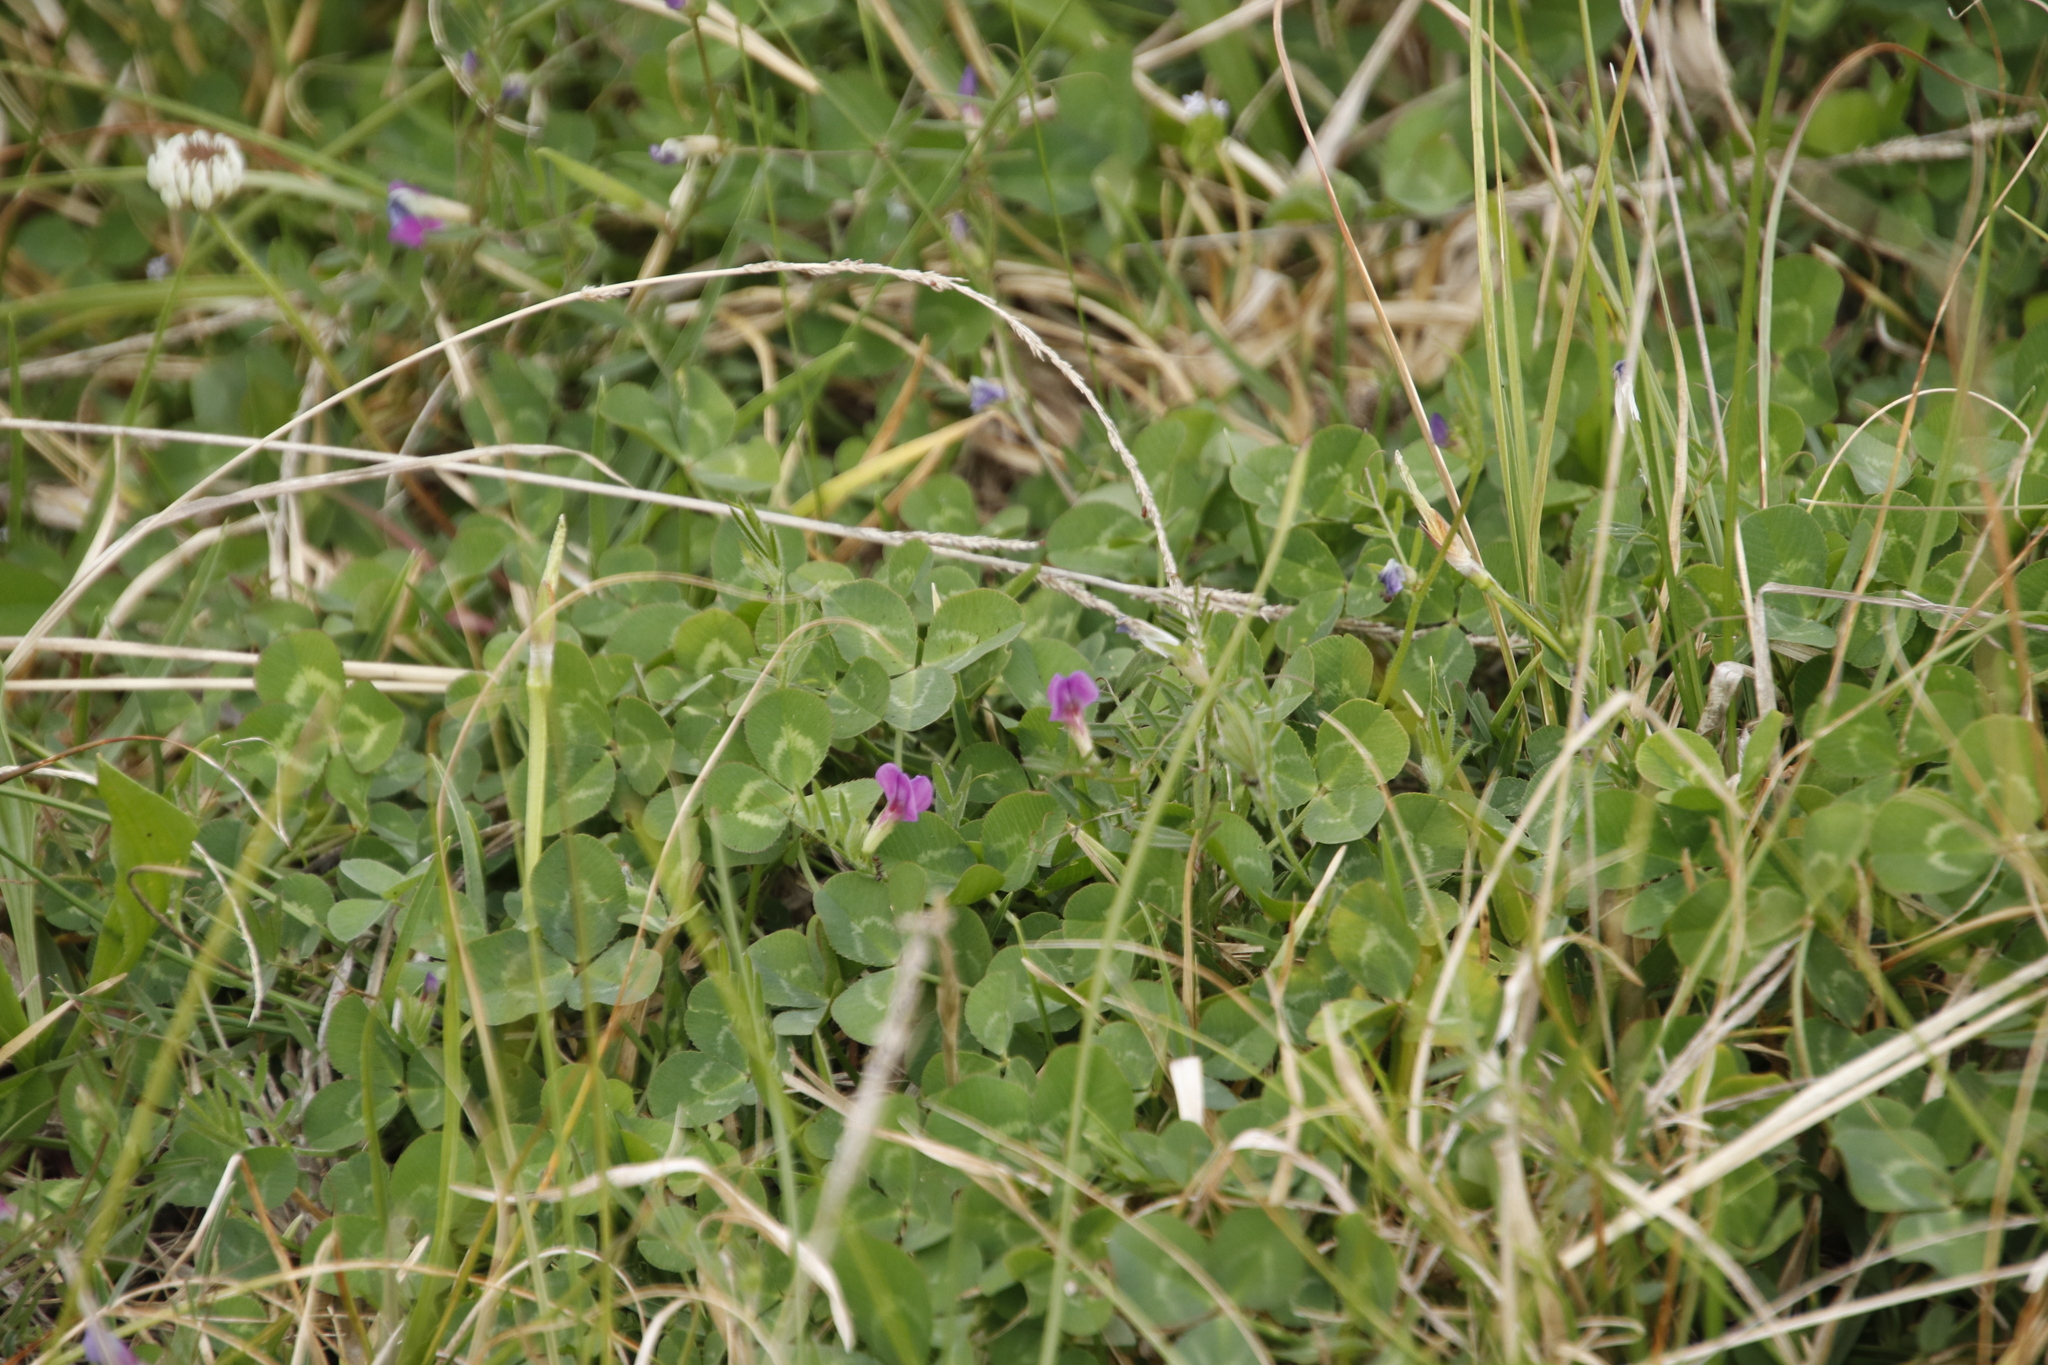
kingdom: Plantae
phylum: Tracheophyta
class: Magnoliopsida
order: Fabales
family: Fabaceae
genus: Vicia
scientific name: Vicia sativa
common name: Garden vetch
